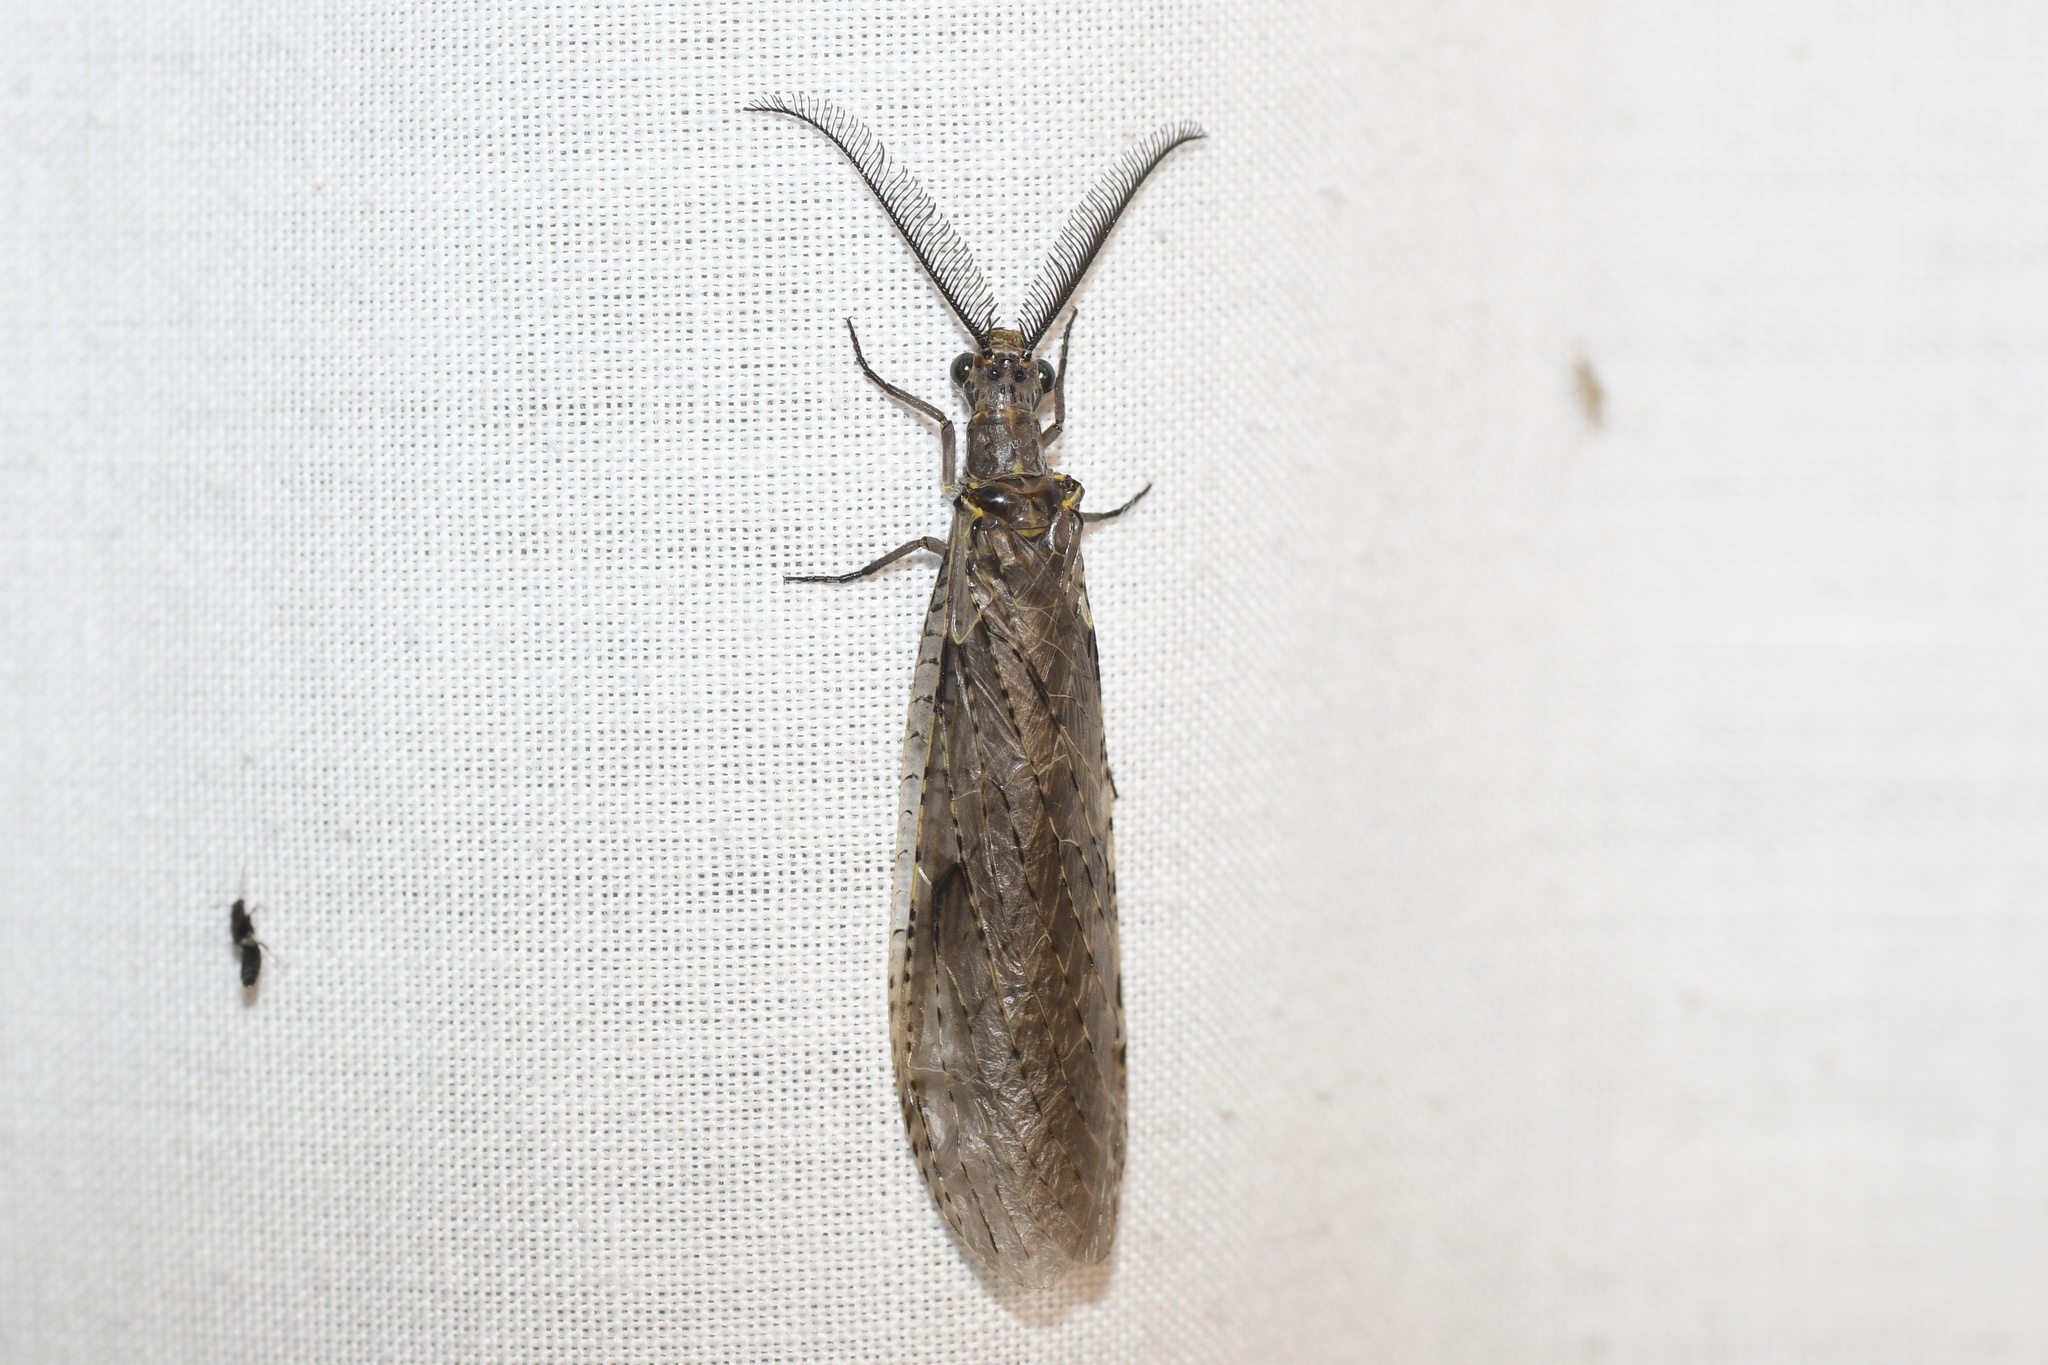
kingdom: Animalia
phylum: Arthropoda
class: Insecta
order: Megaloptera
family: Corydalidae
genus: Chauliodes
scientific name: Chauliodes rastricornis
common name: Spring fishfly
